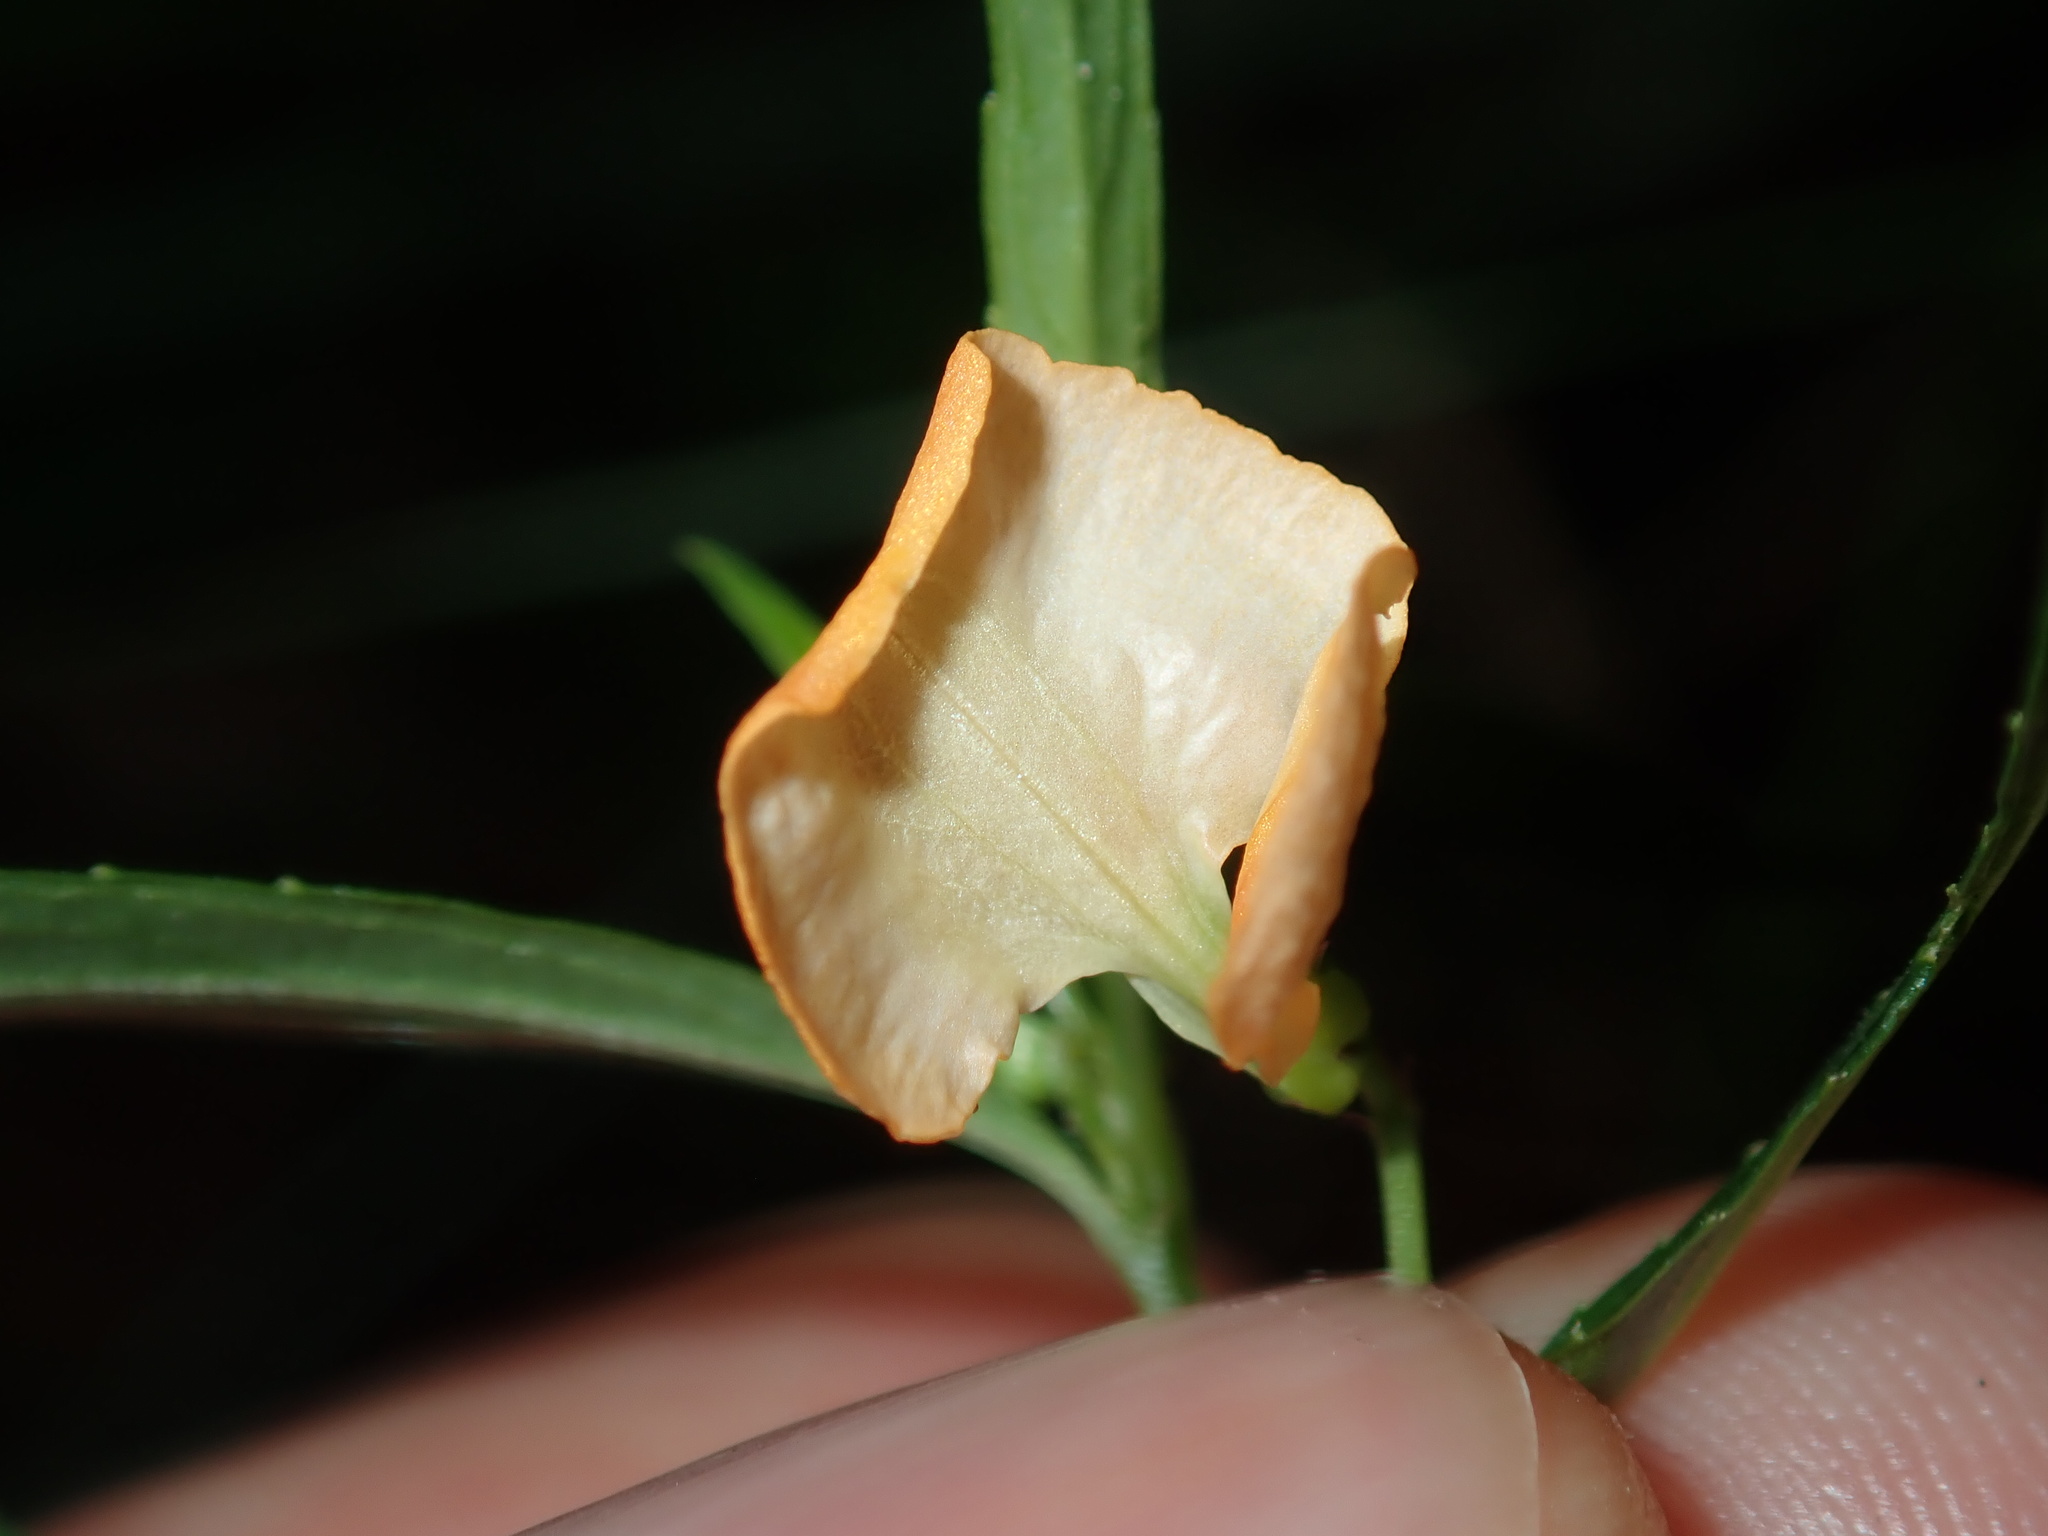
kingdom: Plantae
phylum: Tracheophyta
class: Magnoliopsida
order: Malpighiales
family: Violaceae
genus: Pigea
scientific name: Pigea stellarioides
